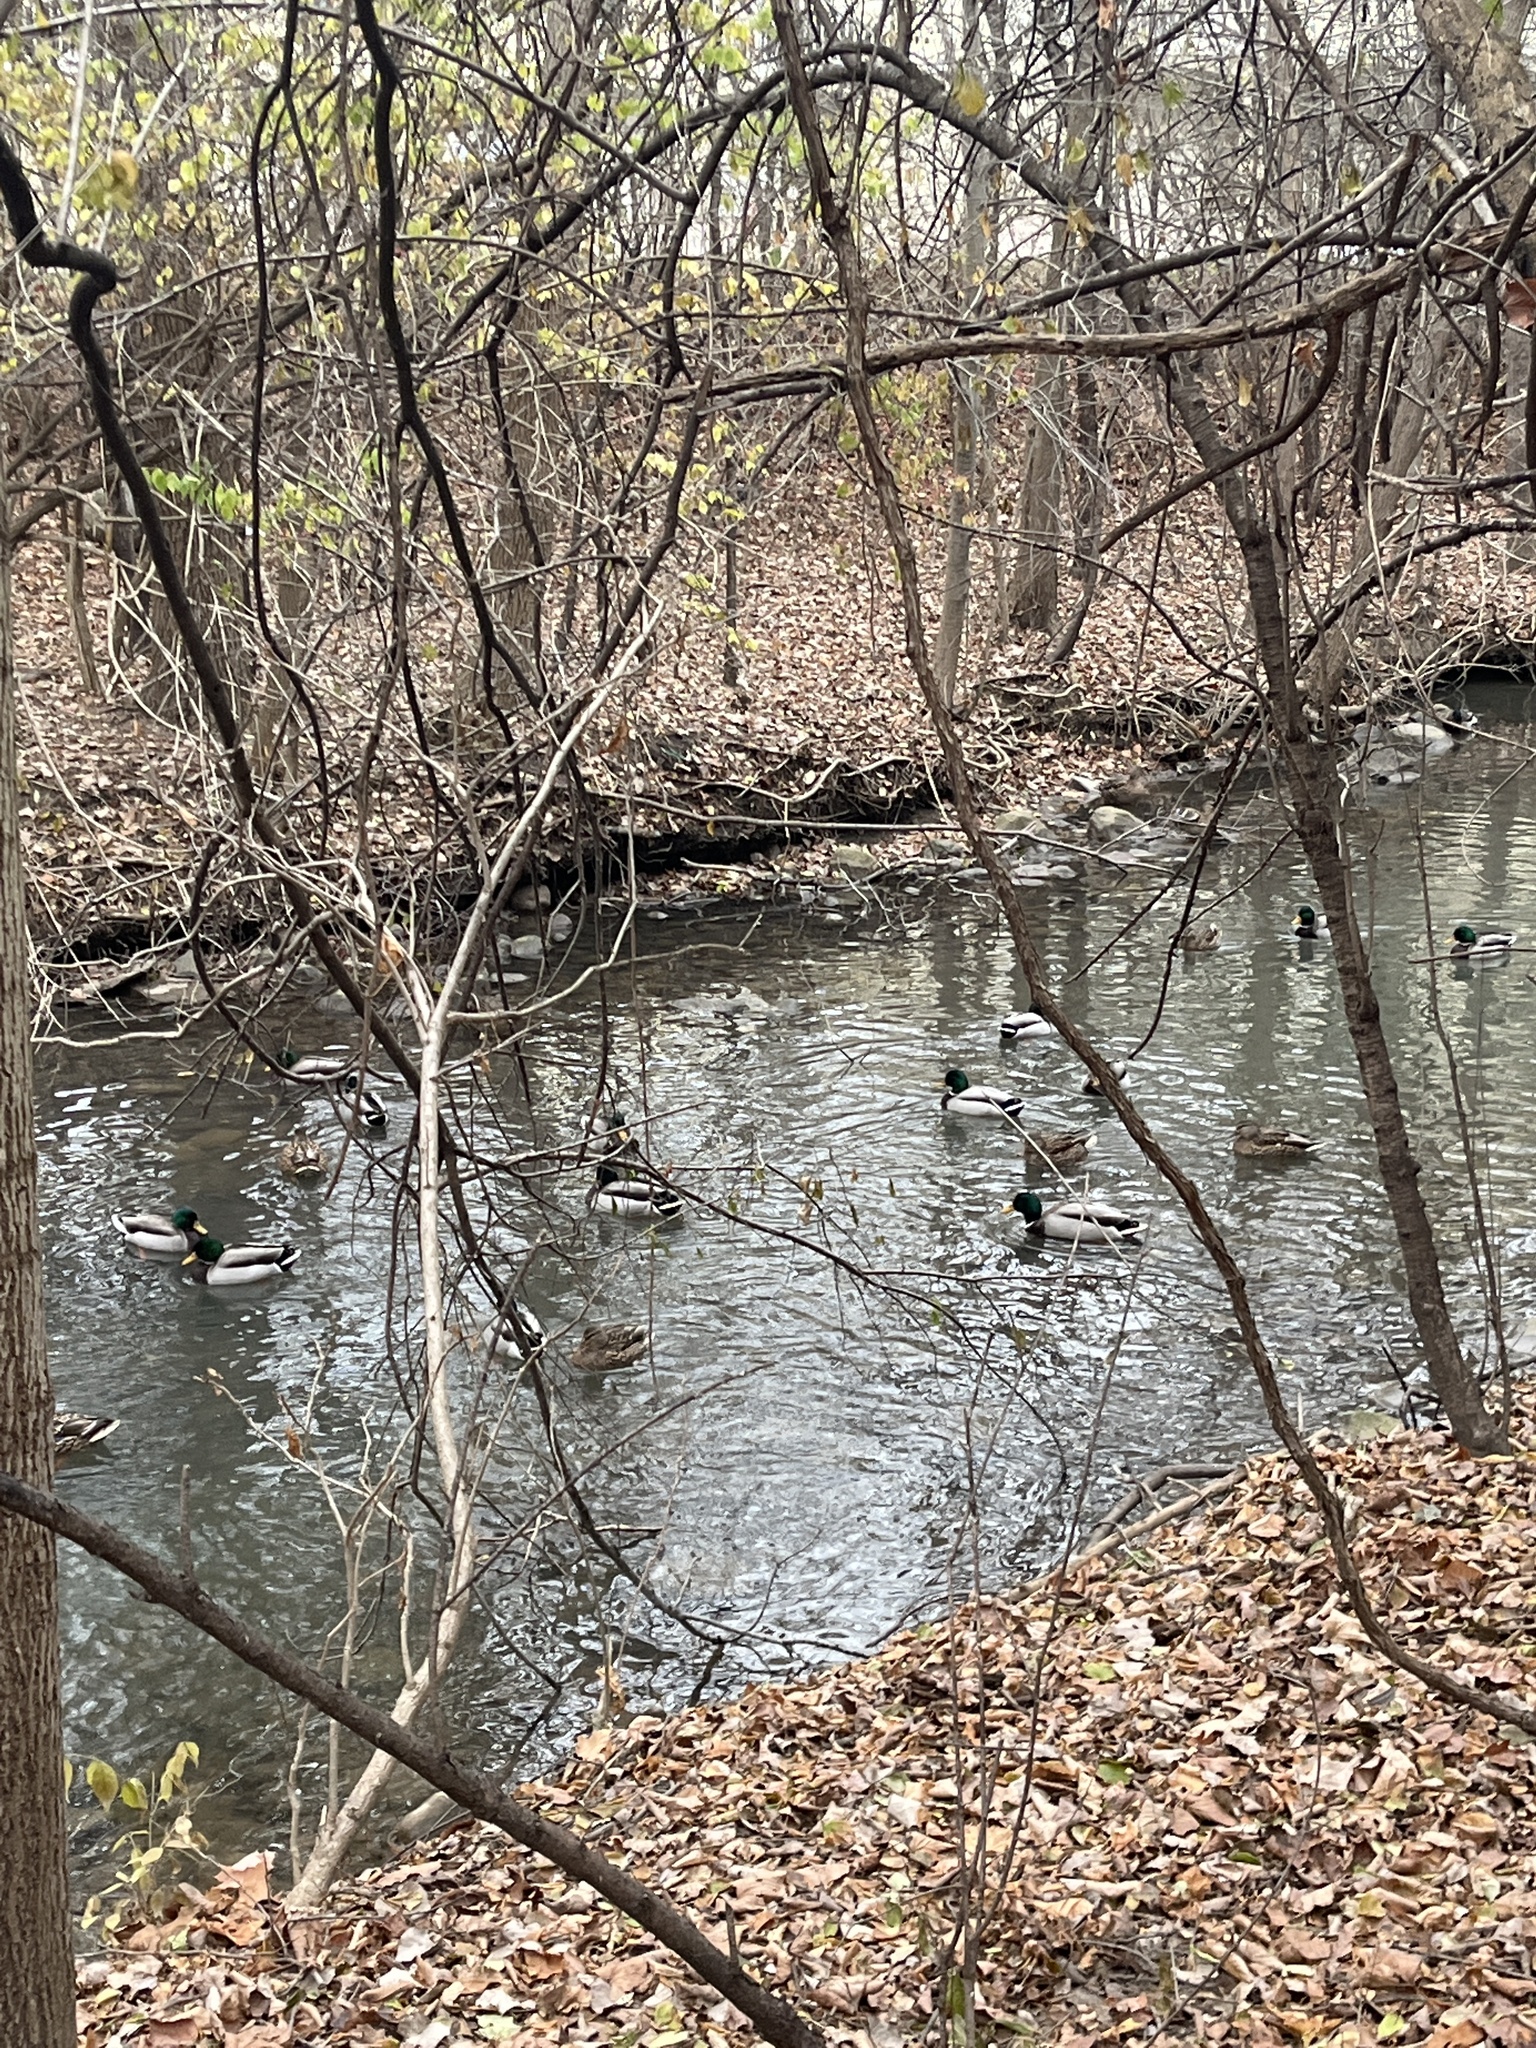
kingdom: Animalia
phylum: Chordata
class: Aves
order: Anseriformes
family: Anatidae
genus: Anas
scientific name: Anas platyrhynchos
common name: Mallard
